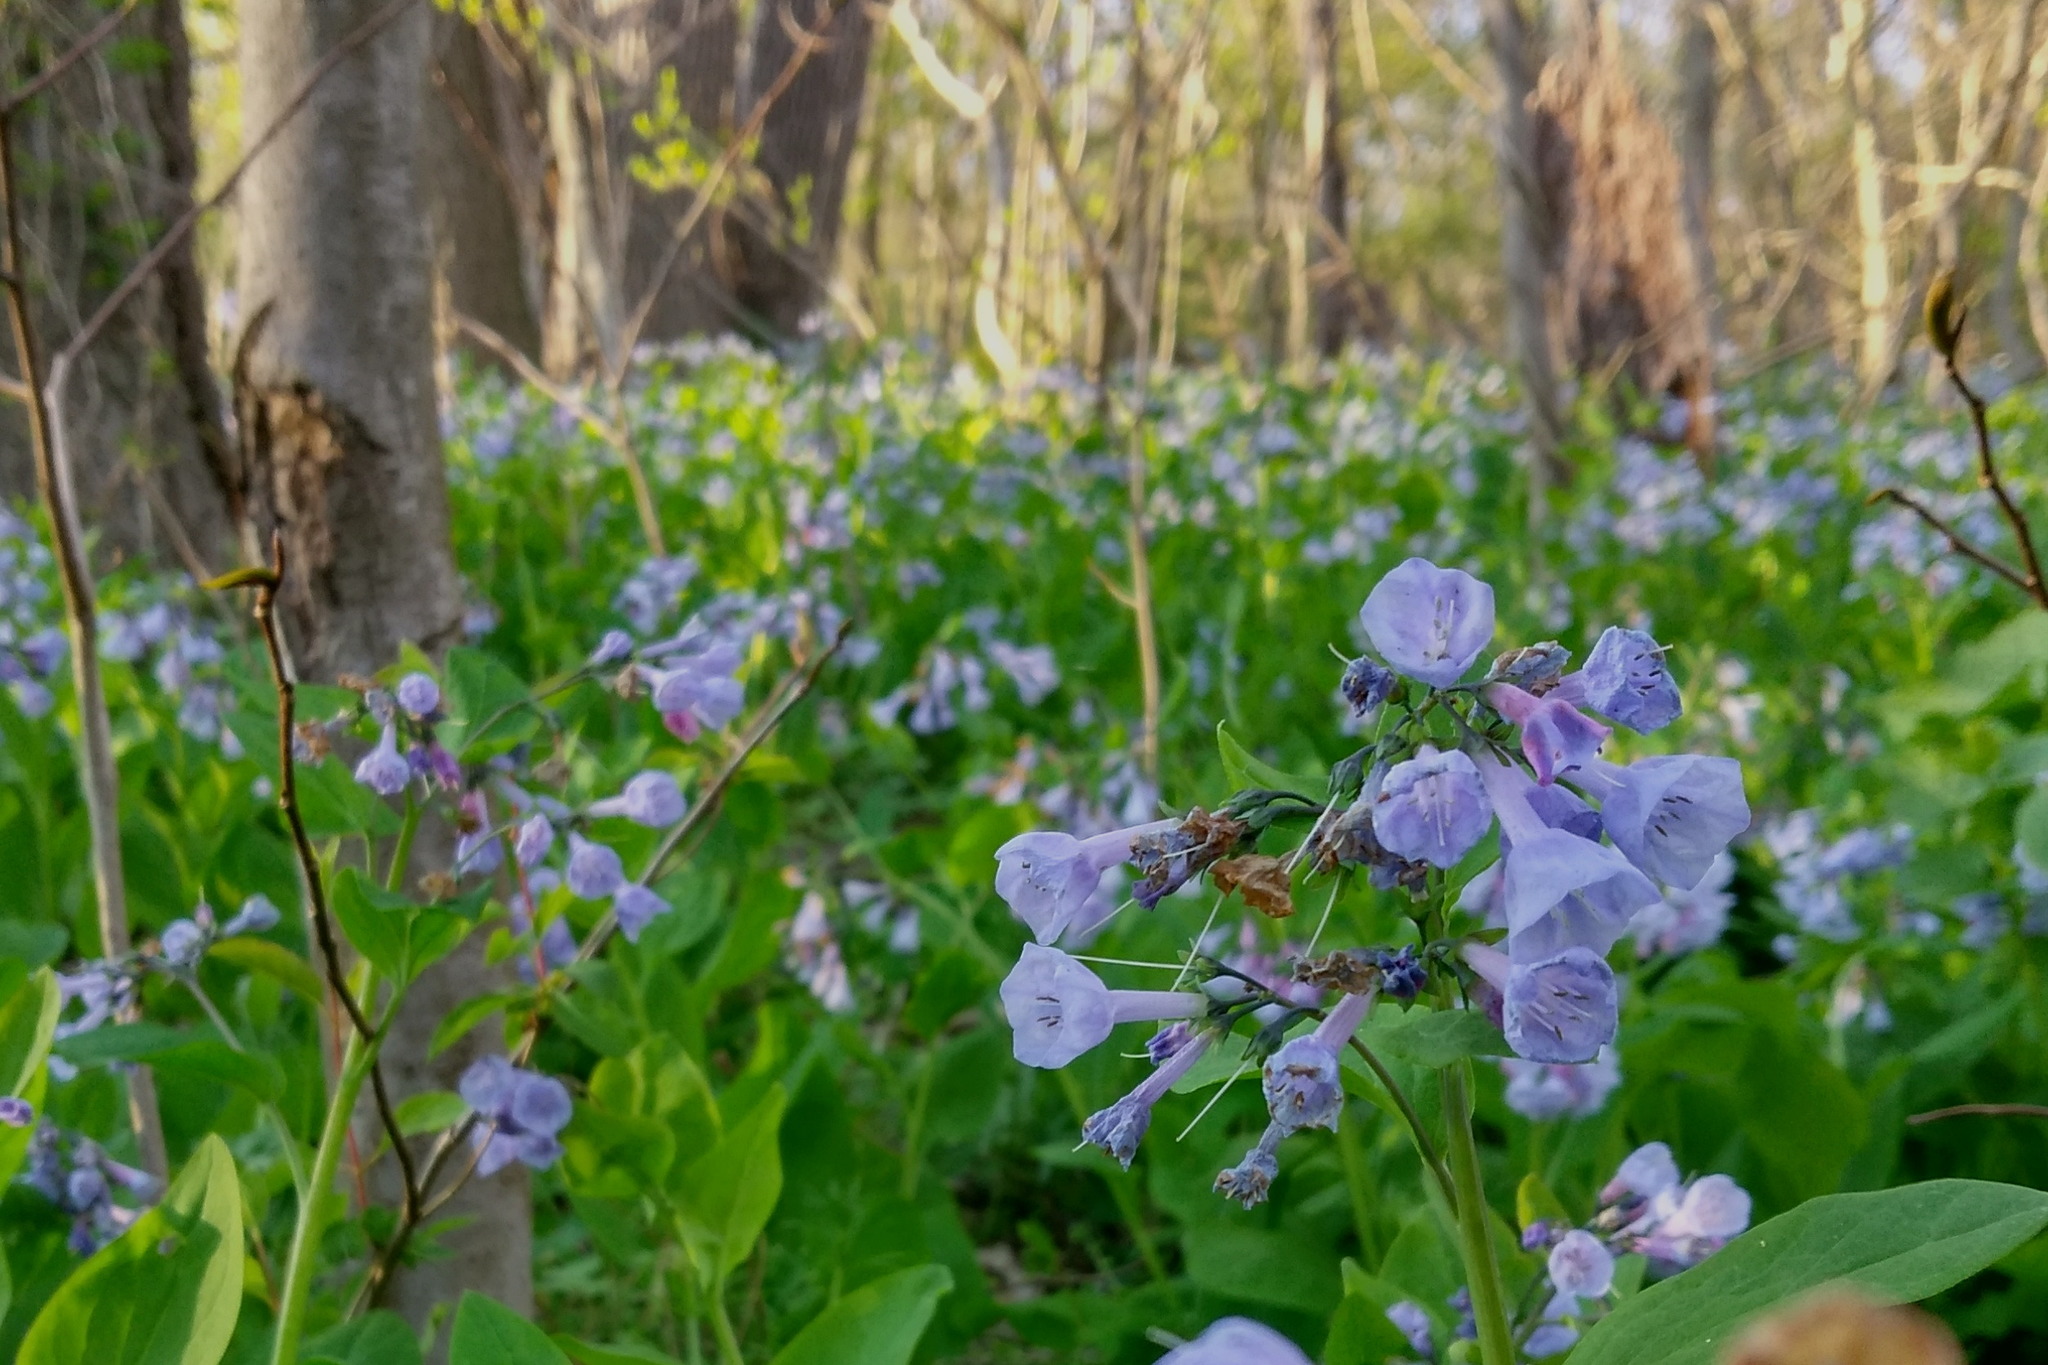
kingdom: Plantae
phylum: Tracheophyta
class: Magnoliopsida
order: Boraginales
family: Boraginaceae
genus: Mertensia
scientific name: Mertensia virginica
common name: Virginia bluebells
